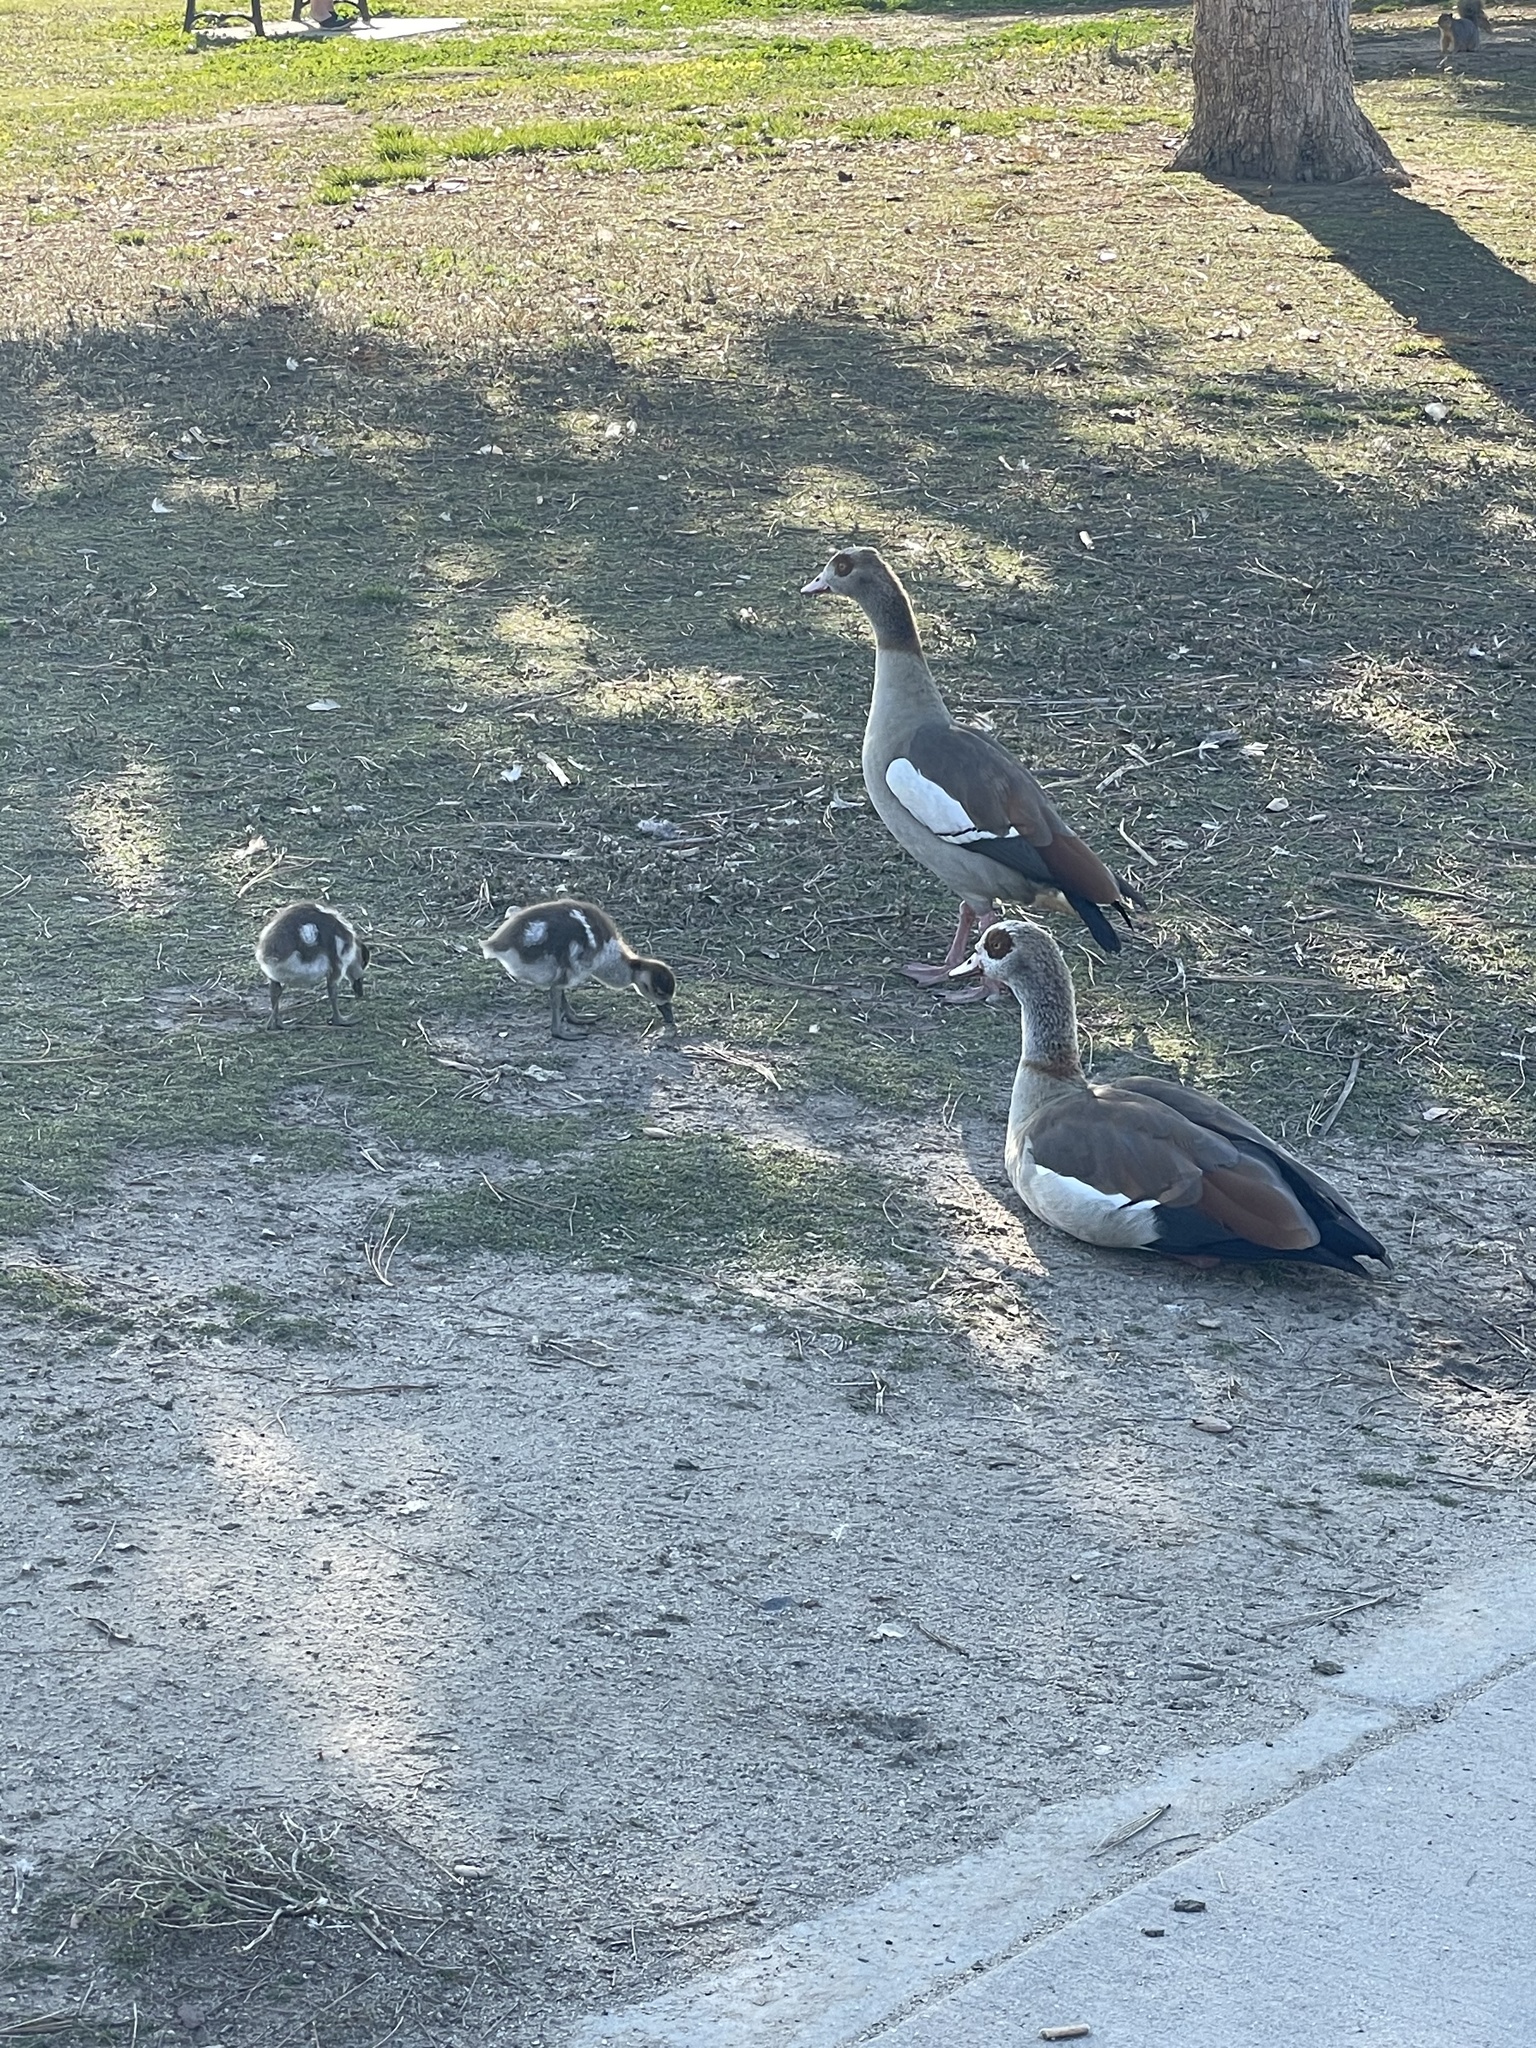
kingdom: Animalia
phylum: Chordata
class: Aves
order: Anseriformes
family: Anatidae
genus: Alopochen
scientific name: Alopochen aegyptiaca
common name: Egyptian goose
